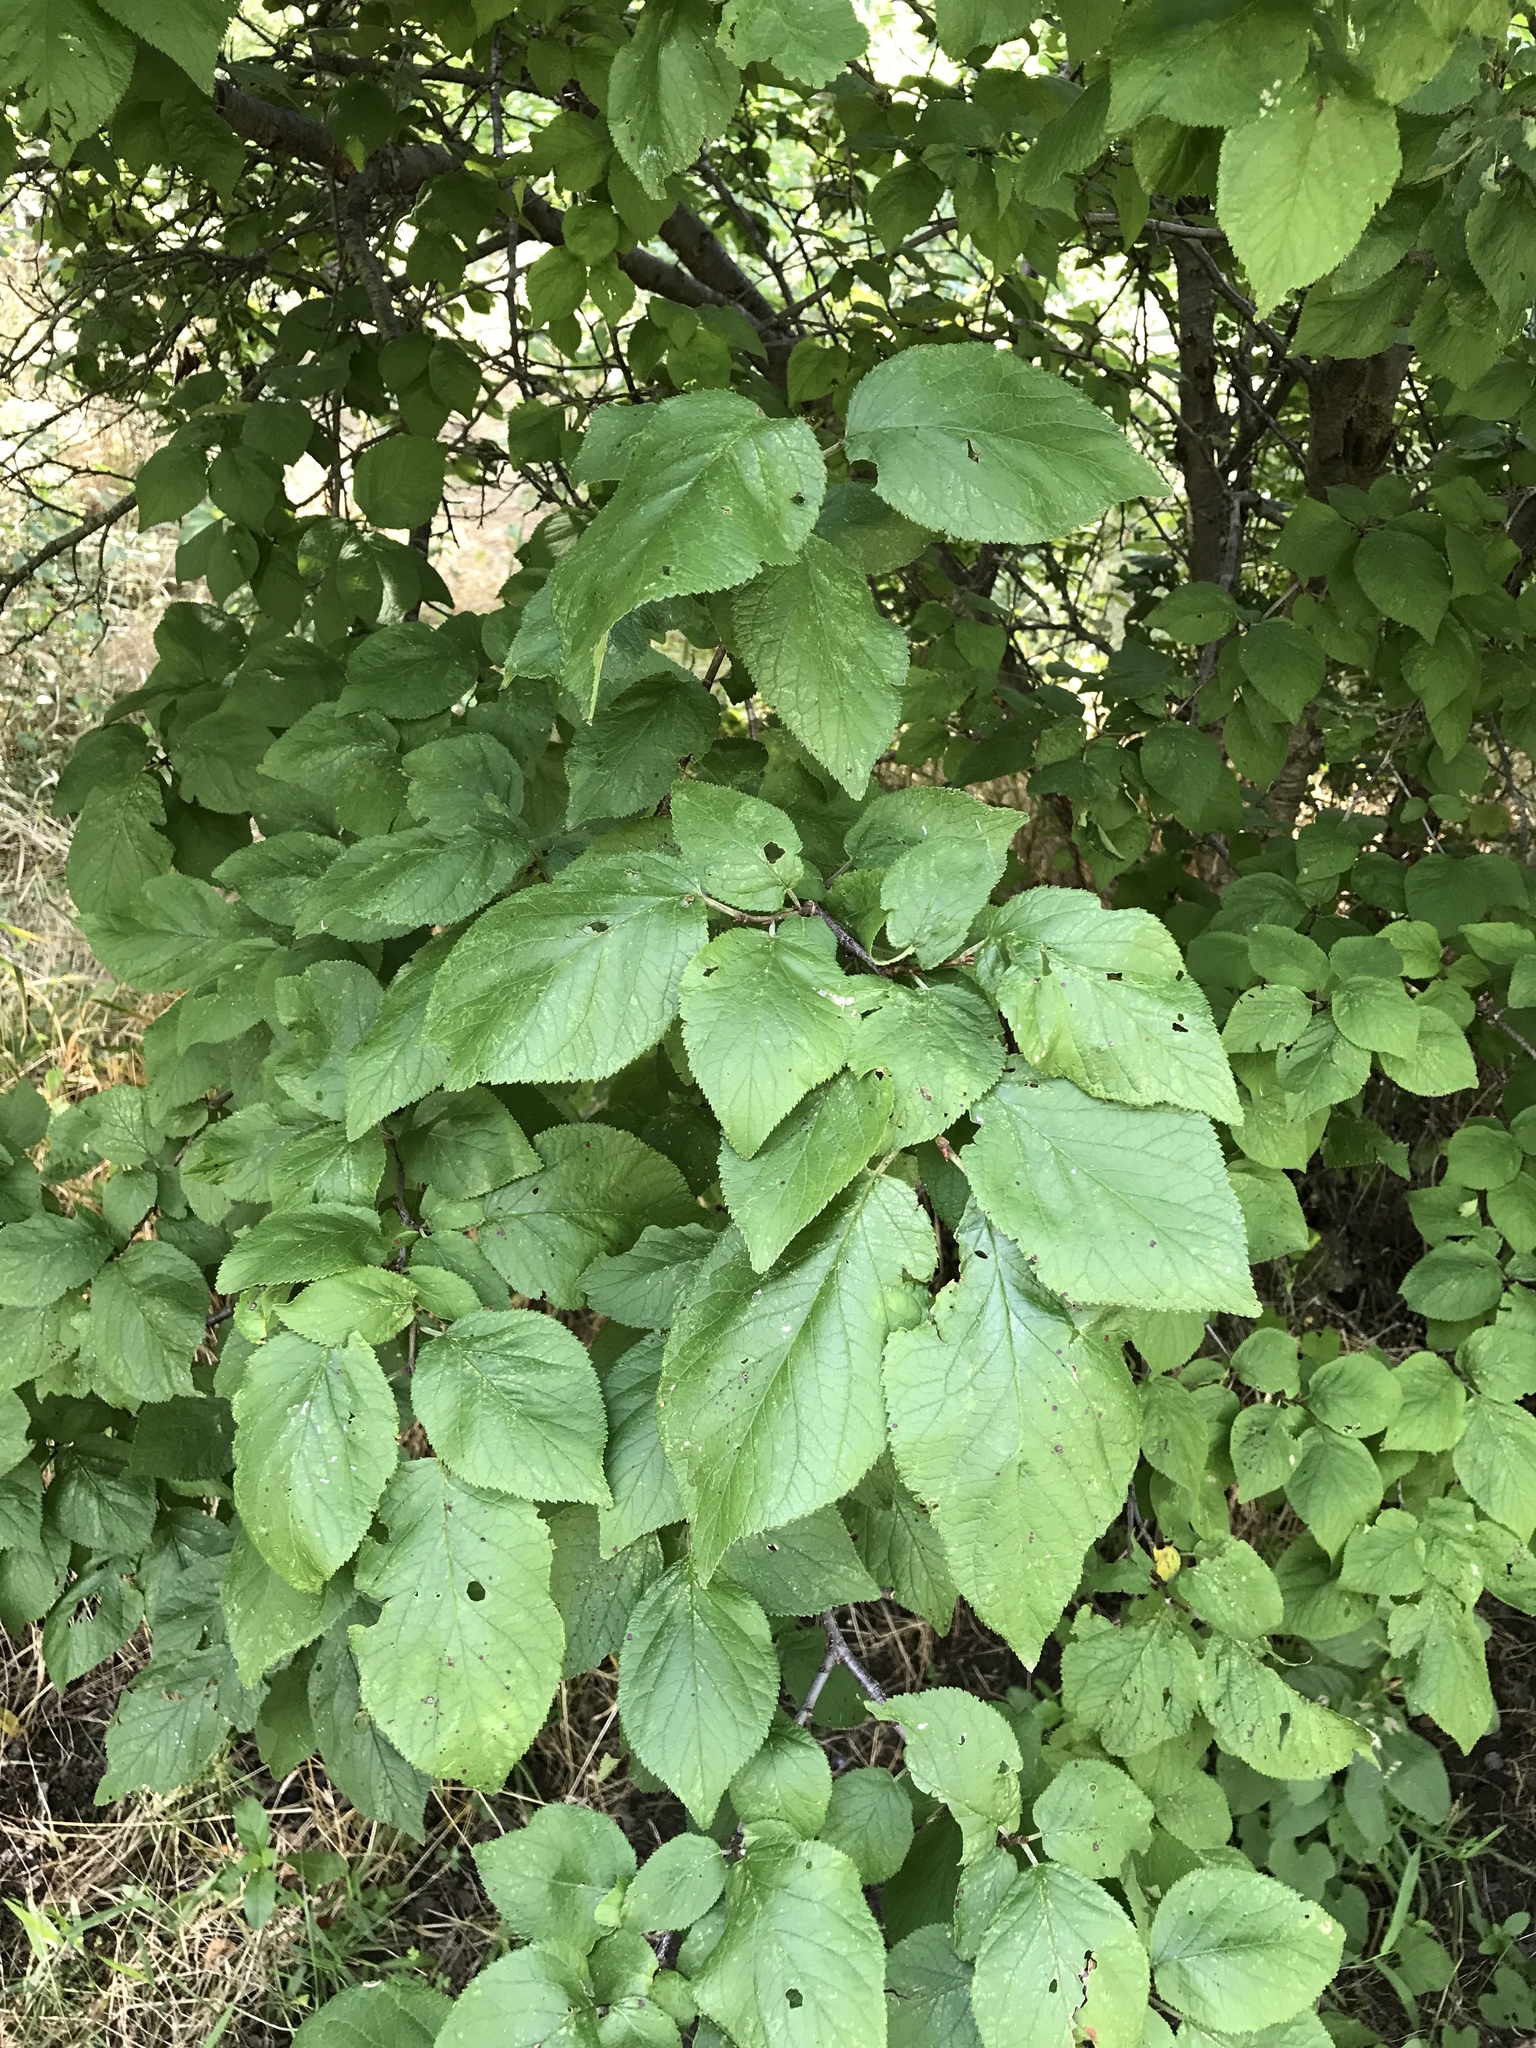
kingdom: Plantae
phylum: Tracheophyta
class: Magnoliopsida
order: Rosales
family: Rosaceae
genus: Prunus
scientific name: Prunus mexicana
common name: Mexican plum
